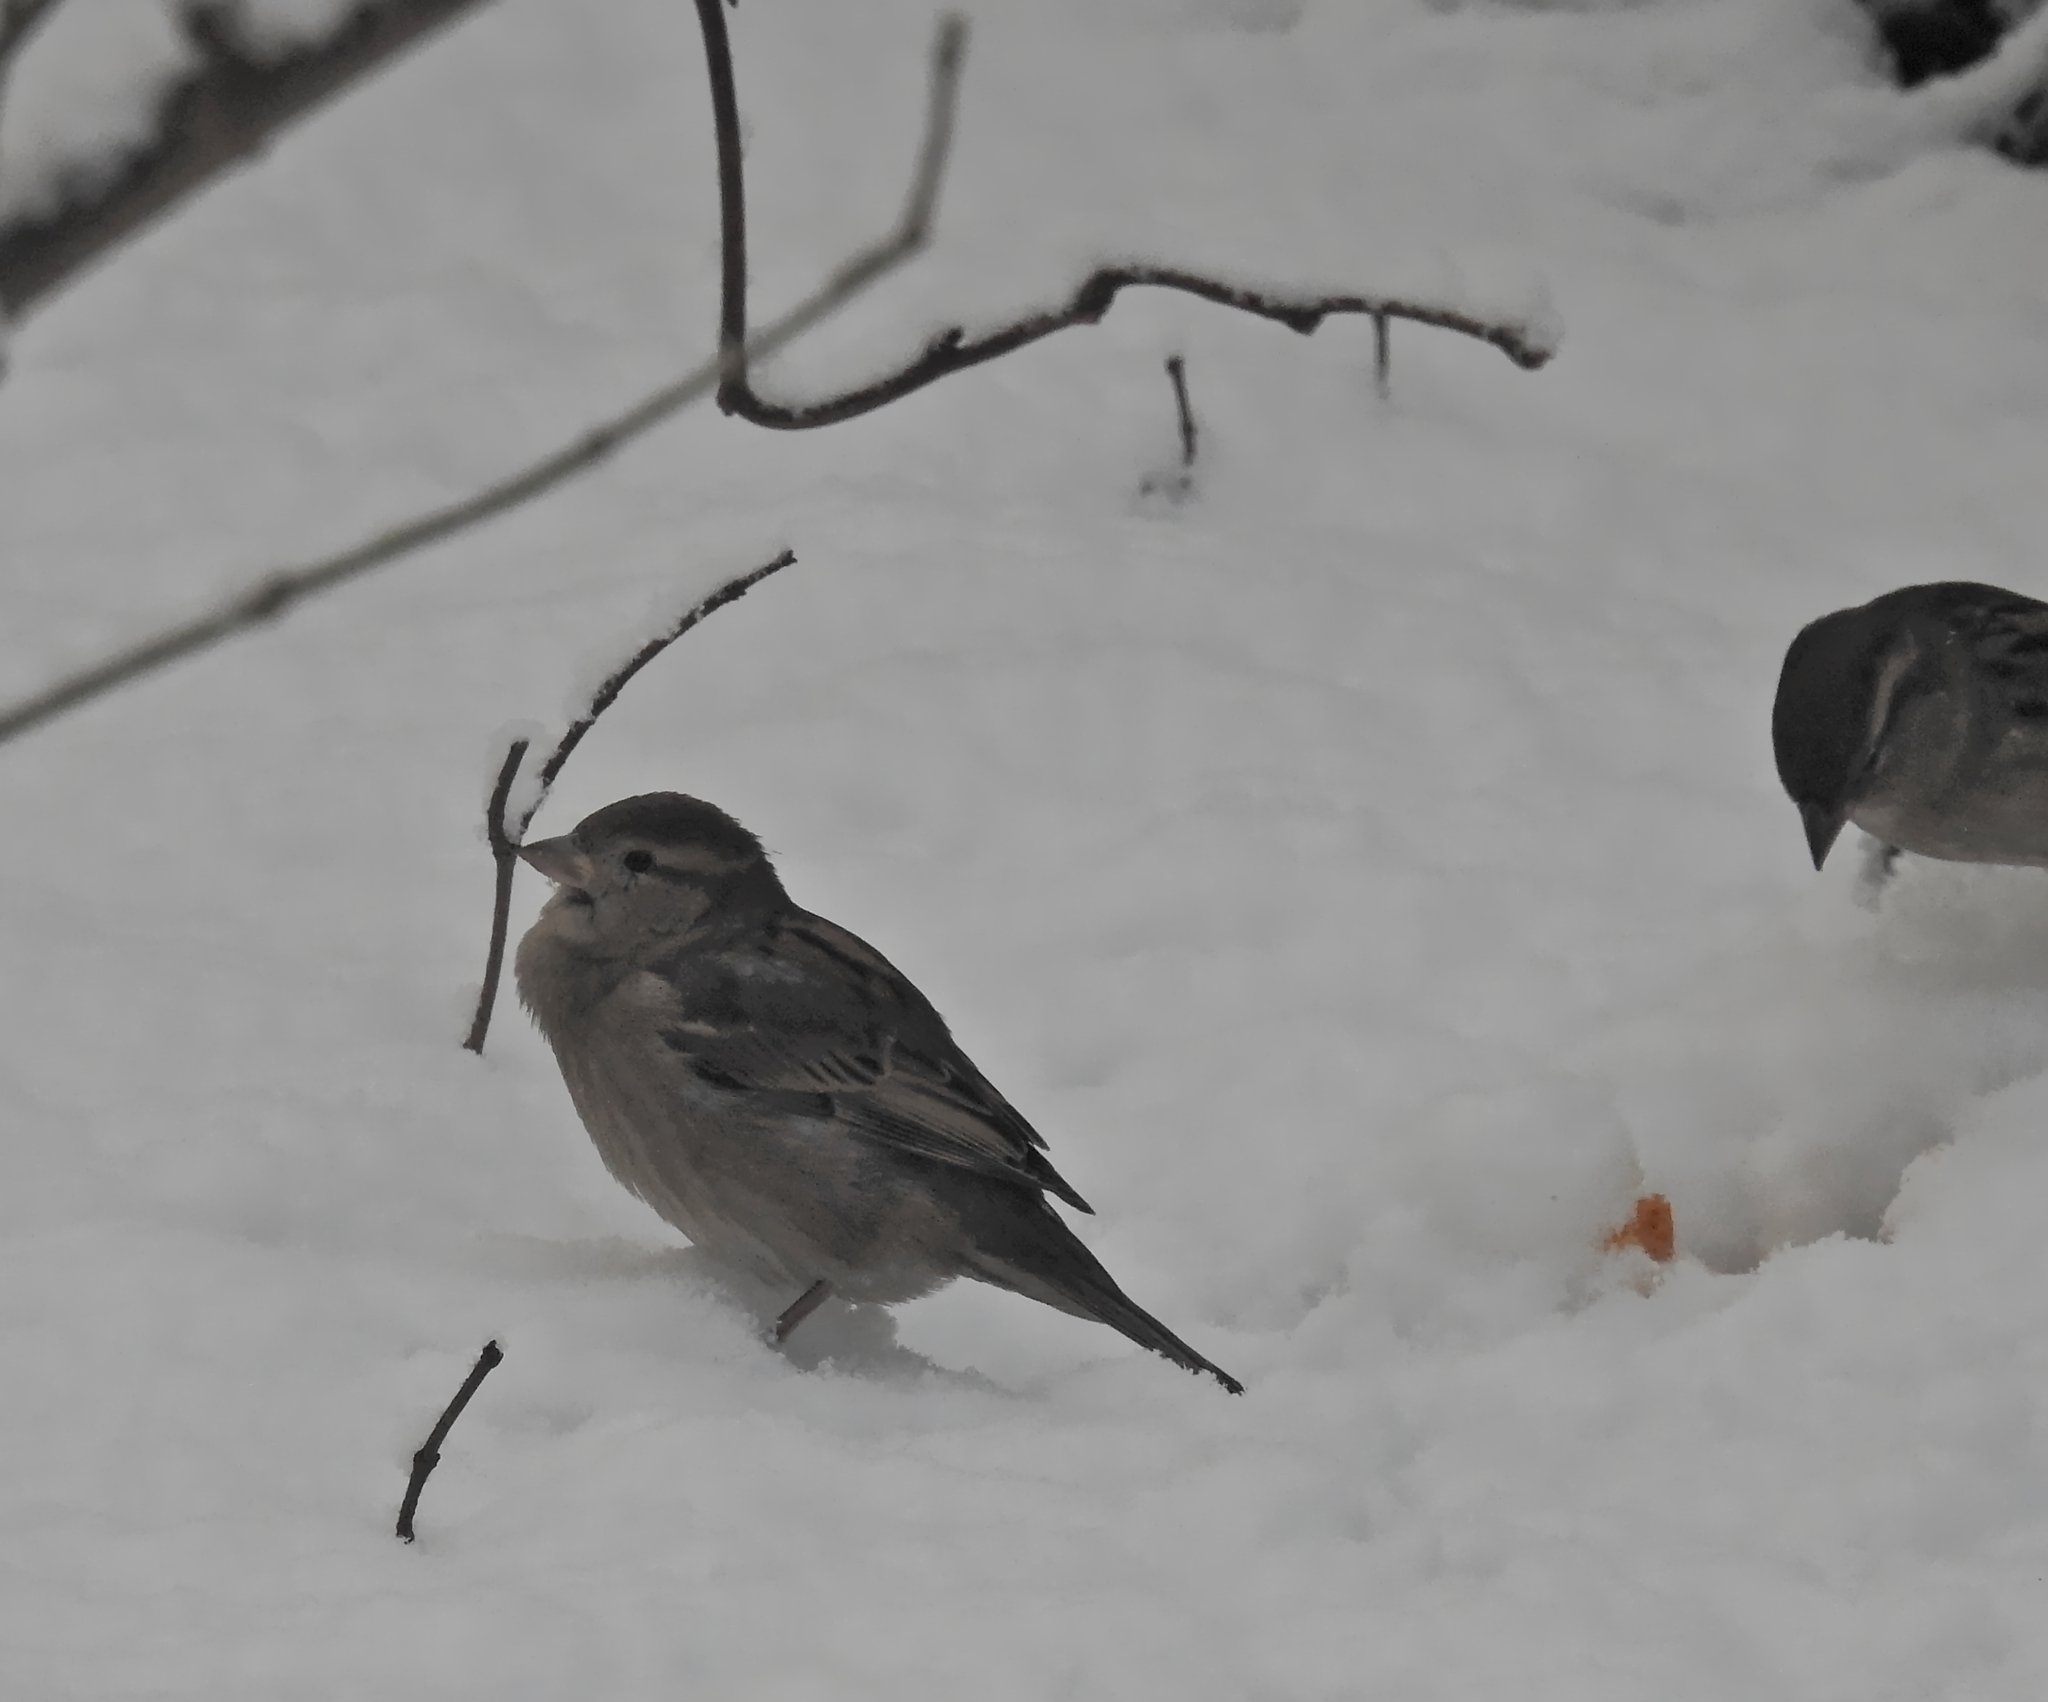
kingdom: Animalia
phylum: Chordata
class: Aves
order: Passeriformes
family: Passeridae
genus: Passer
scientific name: Passer domesticus
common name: House sparrow
